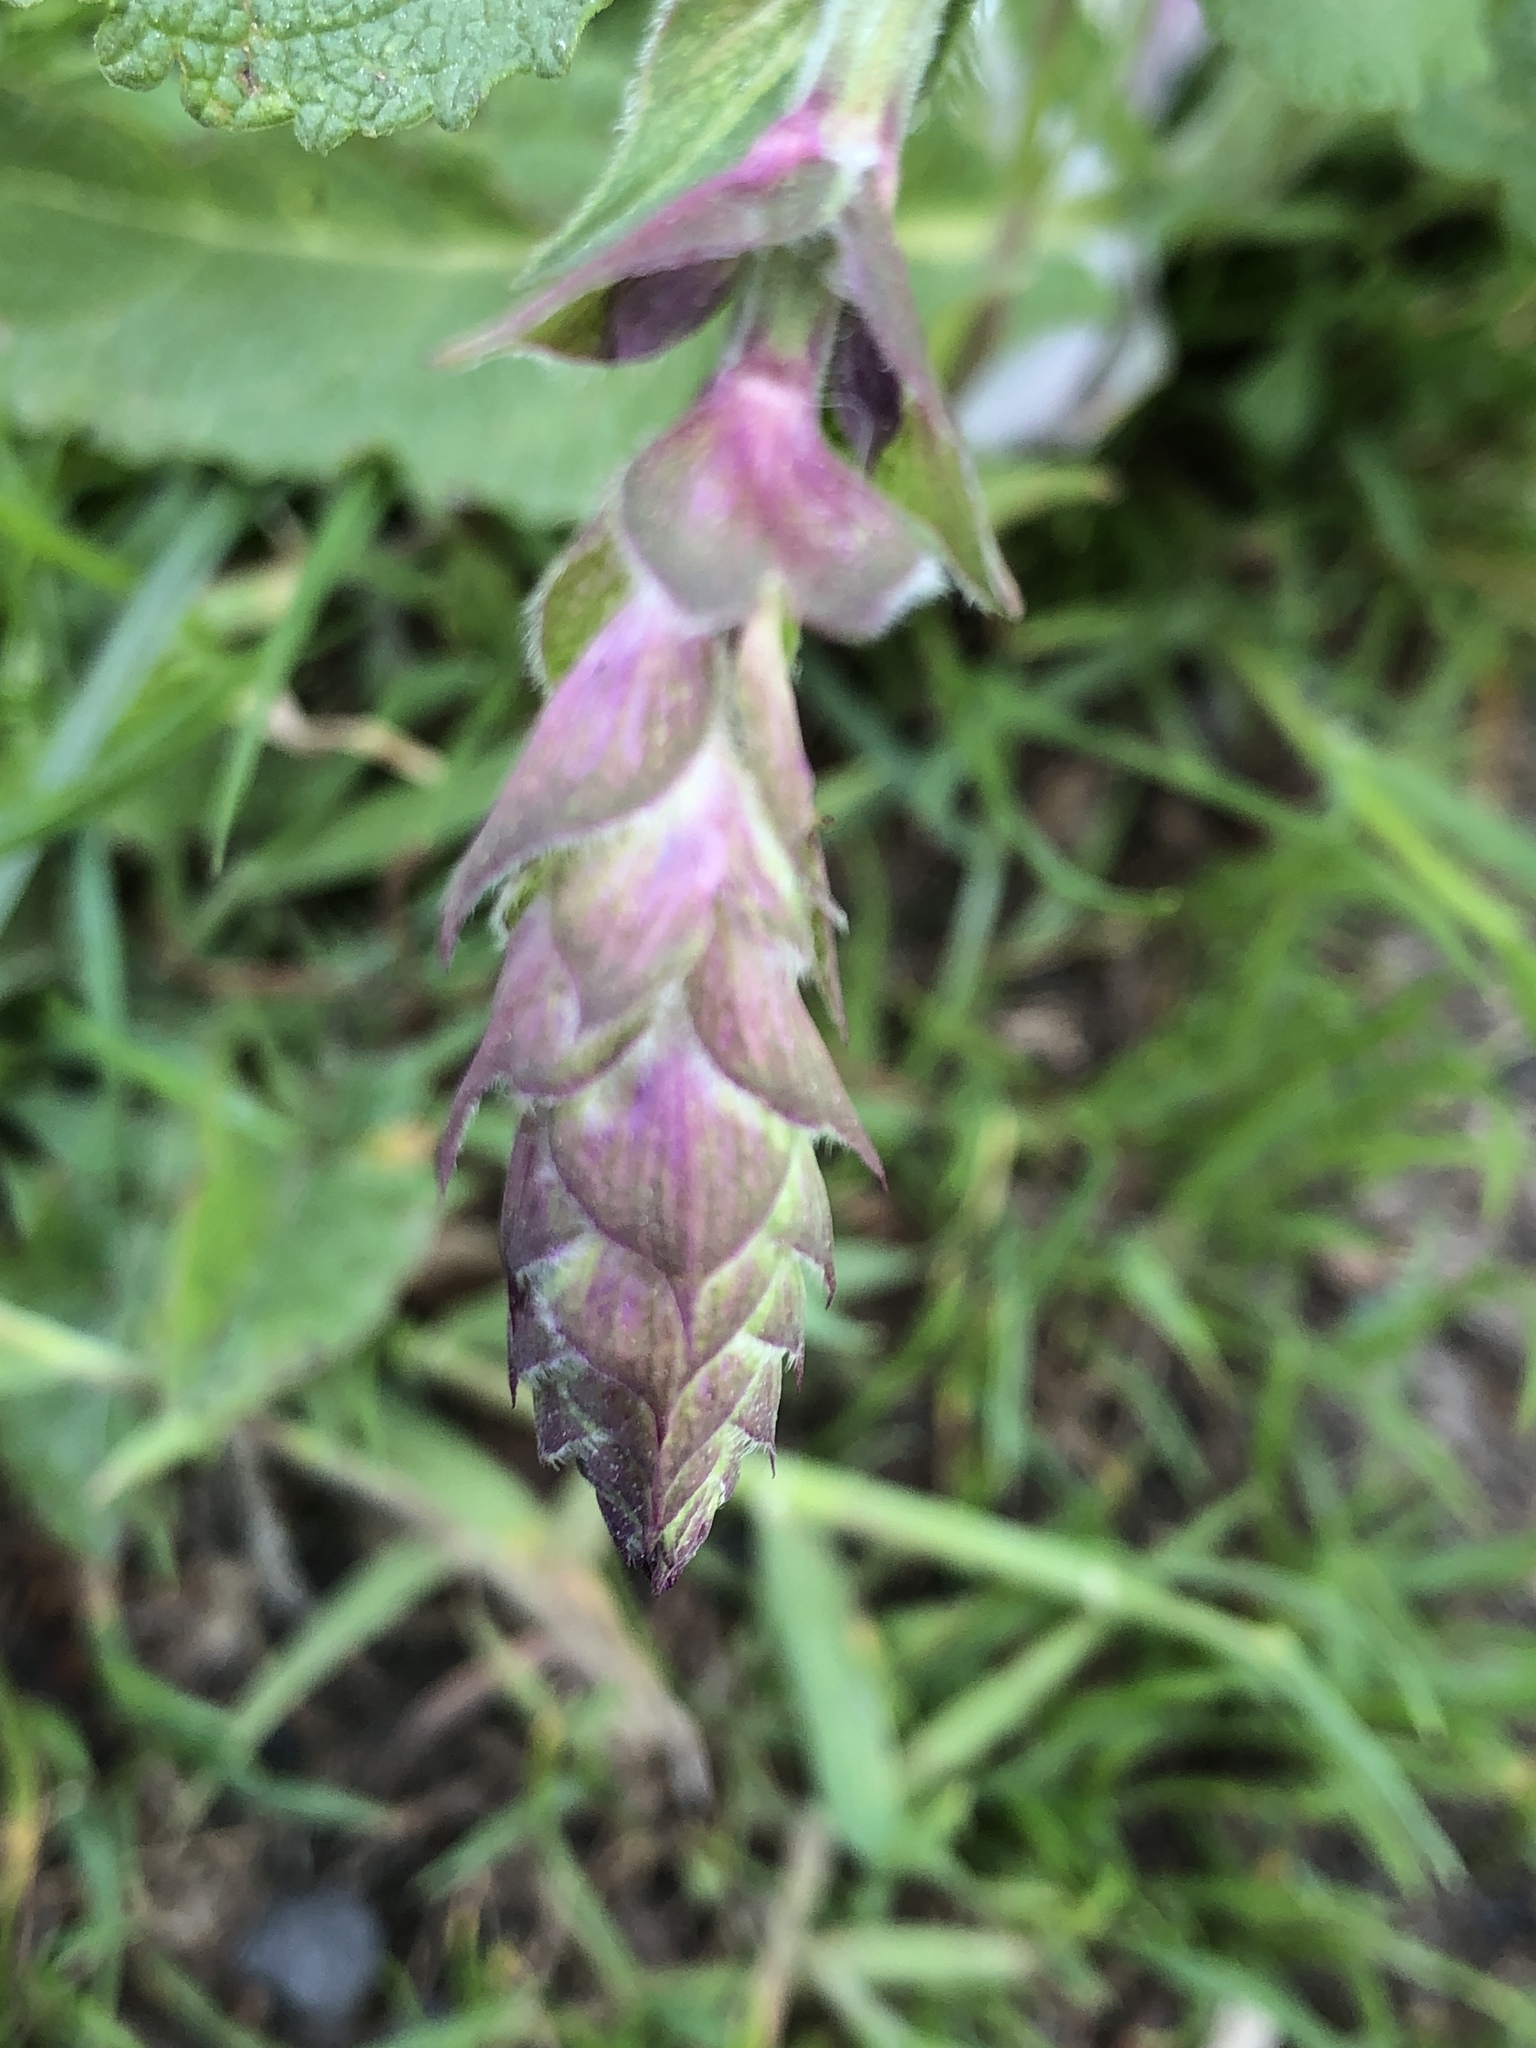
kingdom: Plantae
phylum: Tracheophyta
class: Magnoliopsida
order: Lamiales
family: Lamiaceae
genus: Salvia
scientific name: Salvia sclarea
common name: Clary
